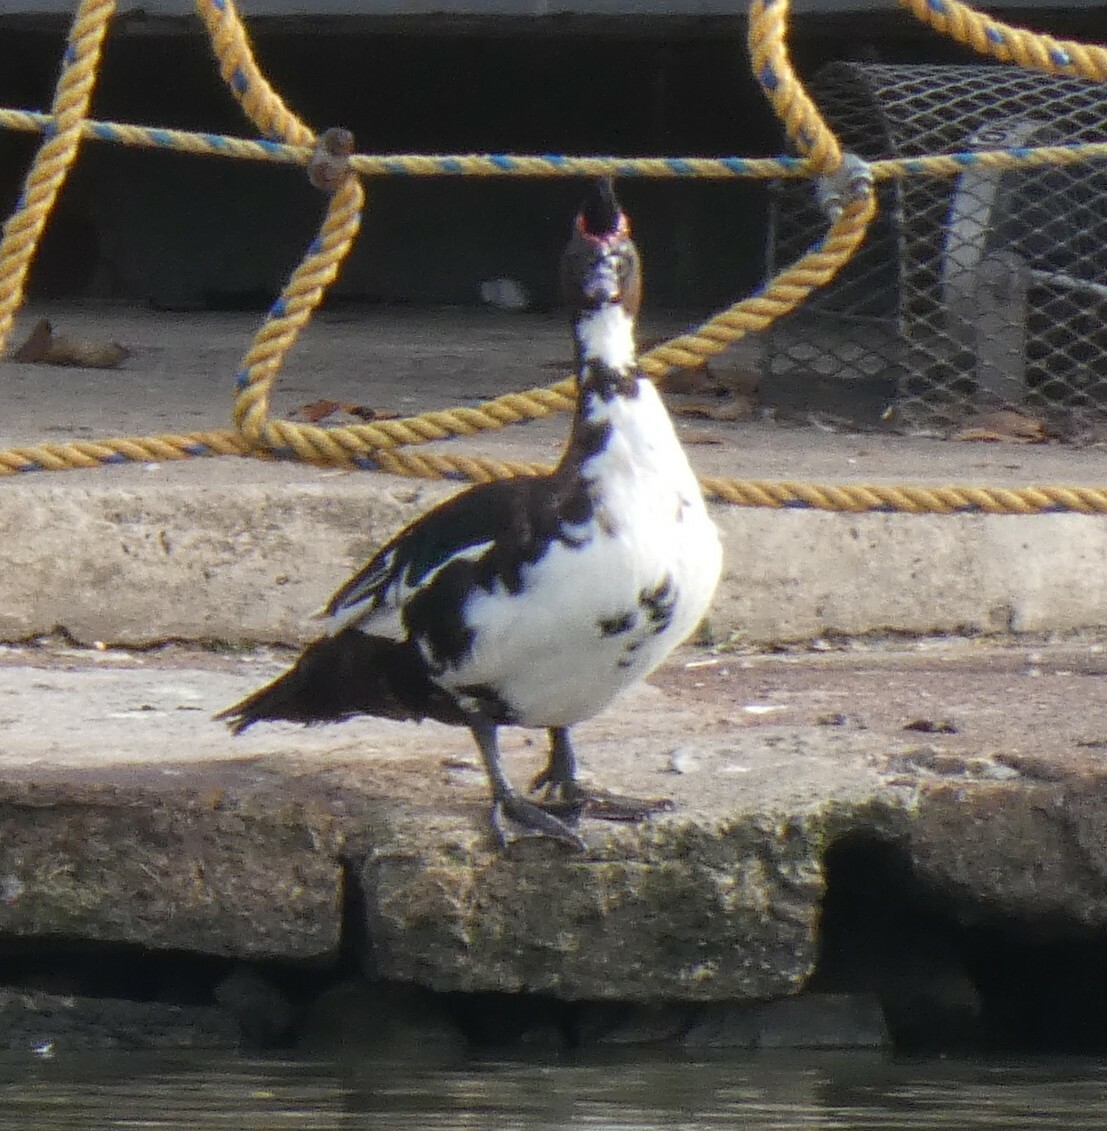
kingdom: Animalia
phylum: Chordata
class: Aves
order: Anseriformes
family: Anatidae
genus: Cairina
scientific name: Cairina moschata
